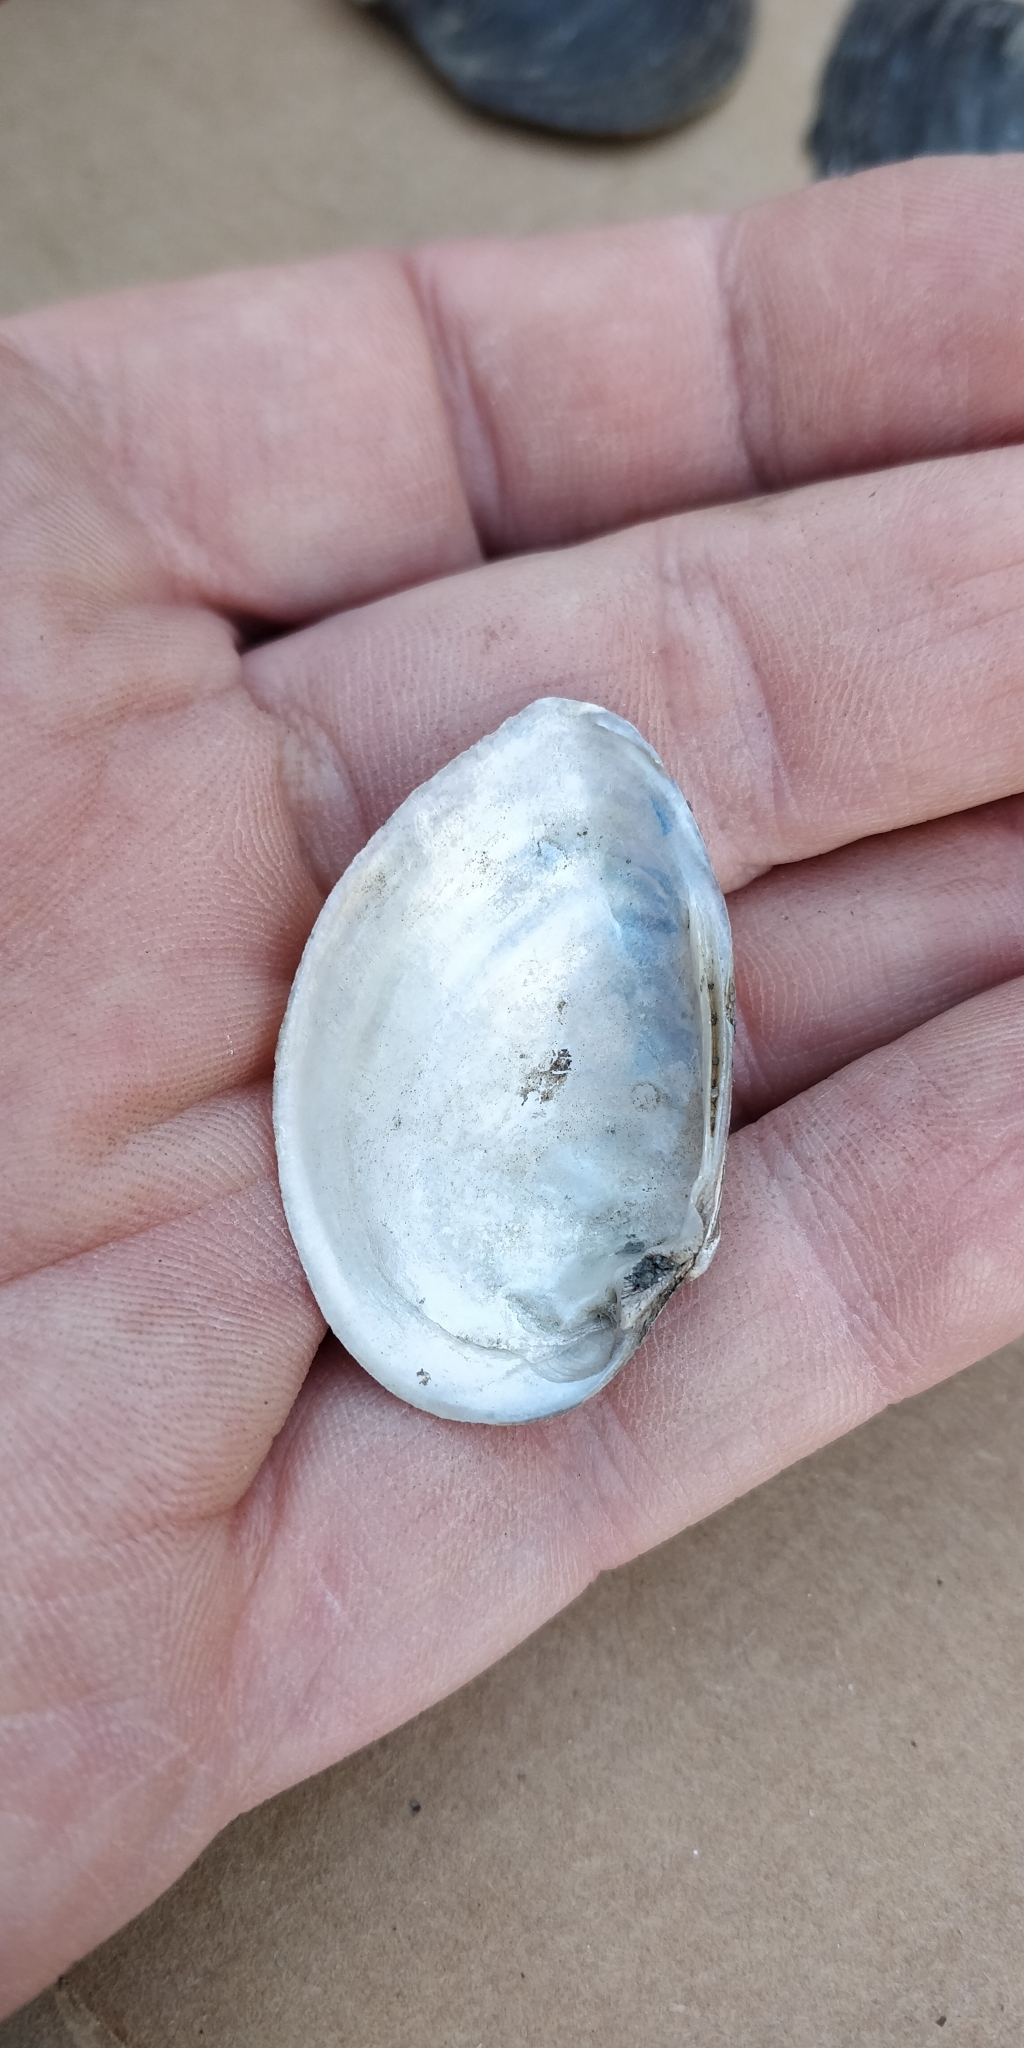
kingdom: Animalia
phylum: Mollusca
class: Bivalvia
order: Unionida
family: Unionidae
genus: Truncilla
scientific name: Truncilla donaciformis
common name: Fawnsfoot
